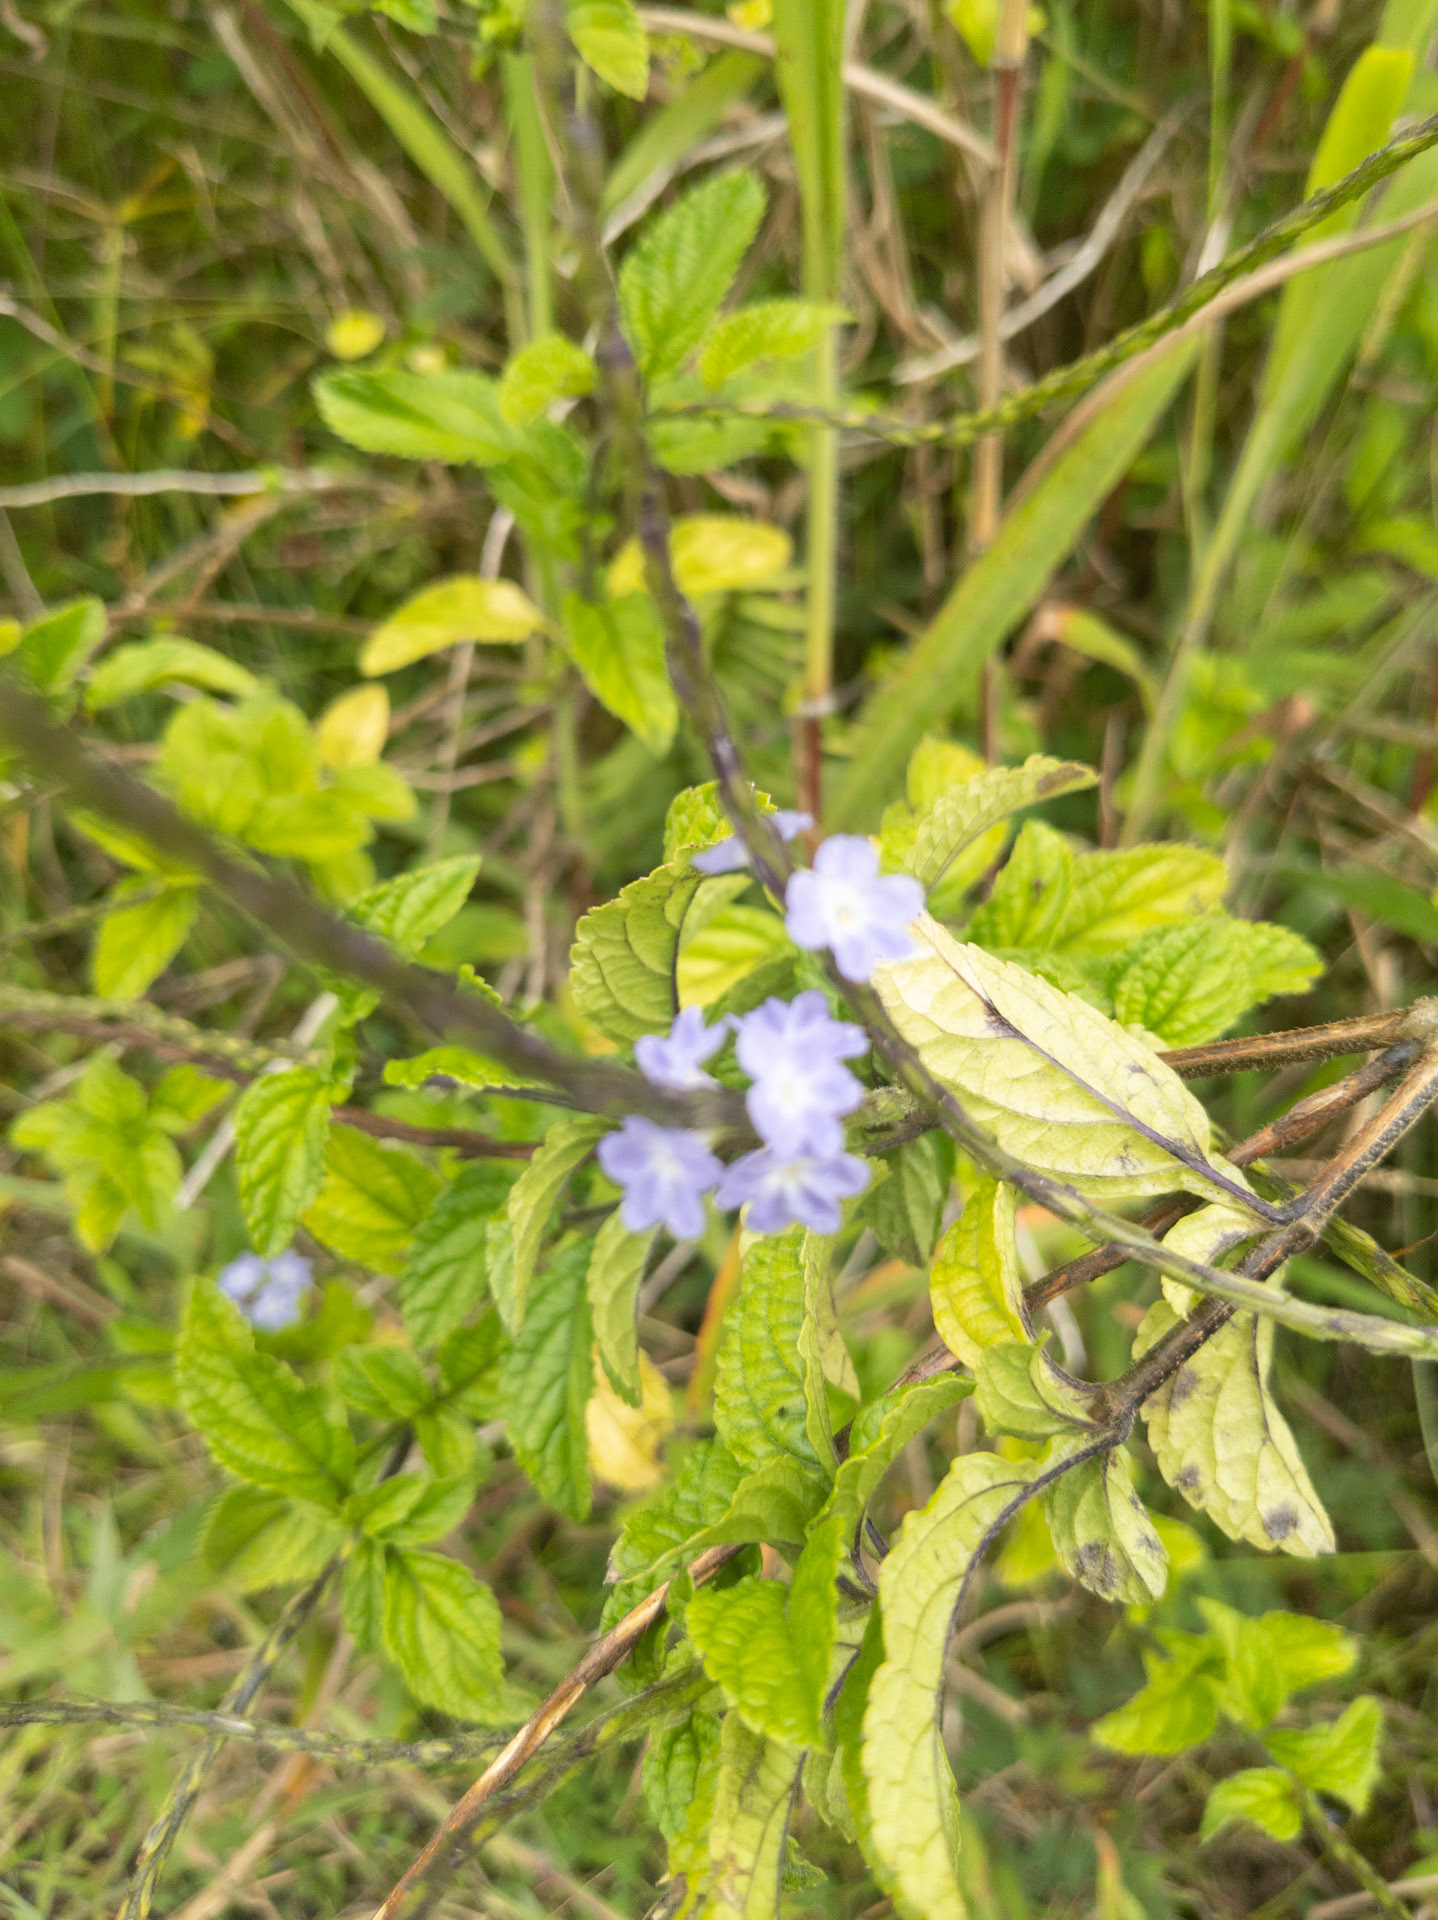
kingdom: Plantae
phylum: Tracheophyta
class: Magnoliopsida
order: Lamiales
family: Verbenaceae
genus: Stachytarpheta
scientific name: Stachytarpheta cayennensis
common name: Cayenne porterweed
